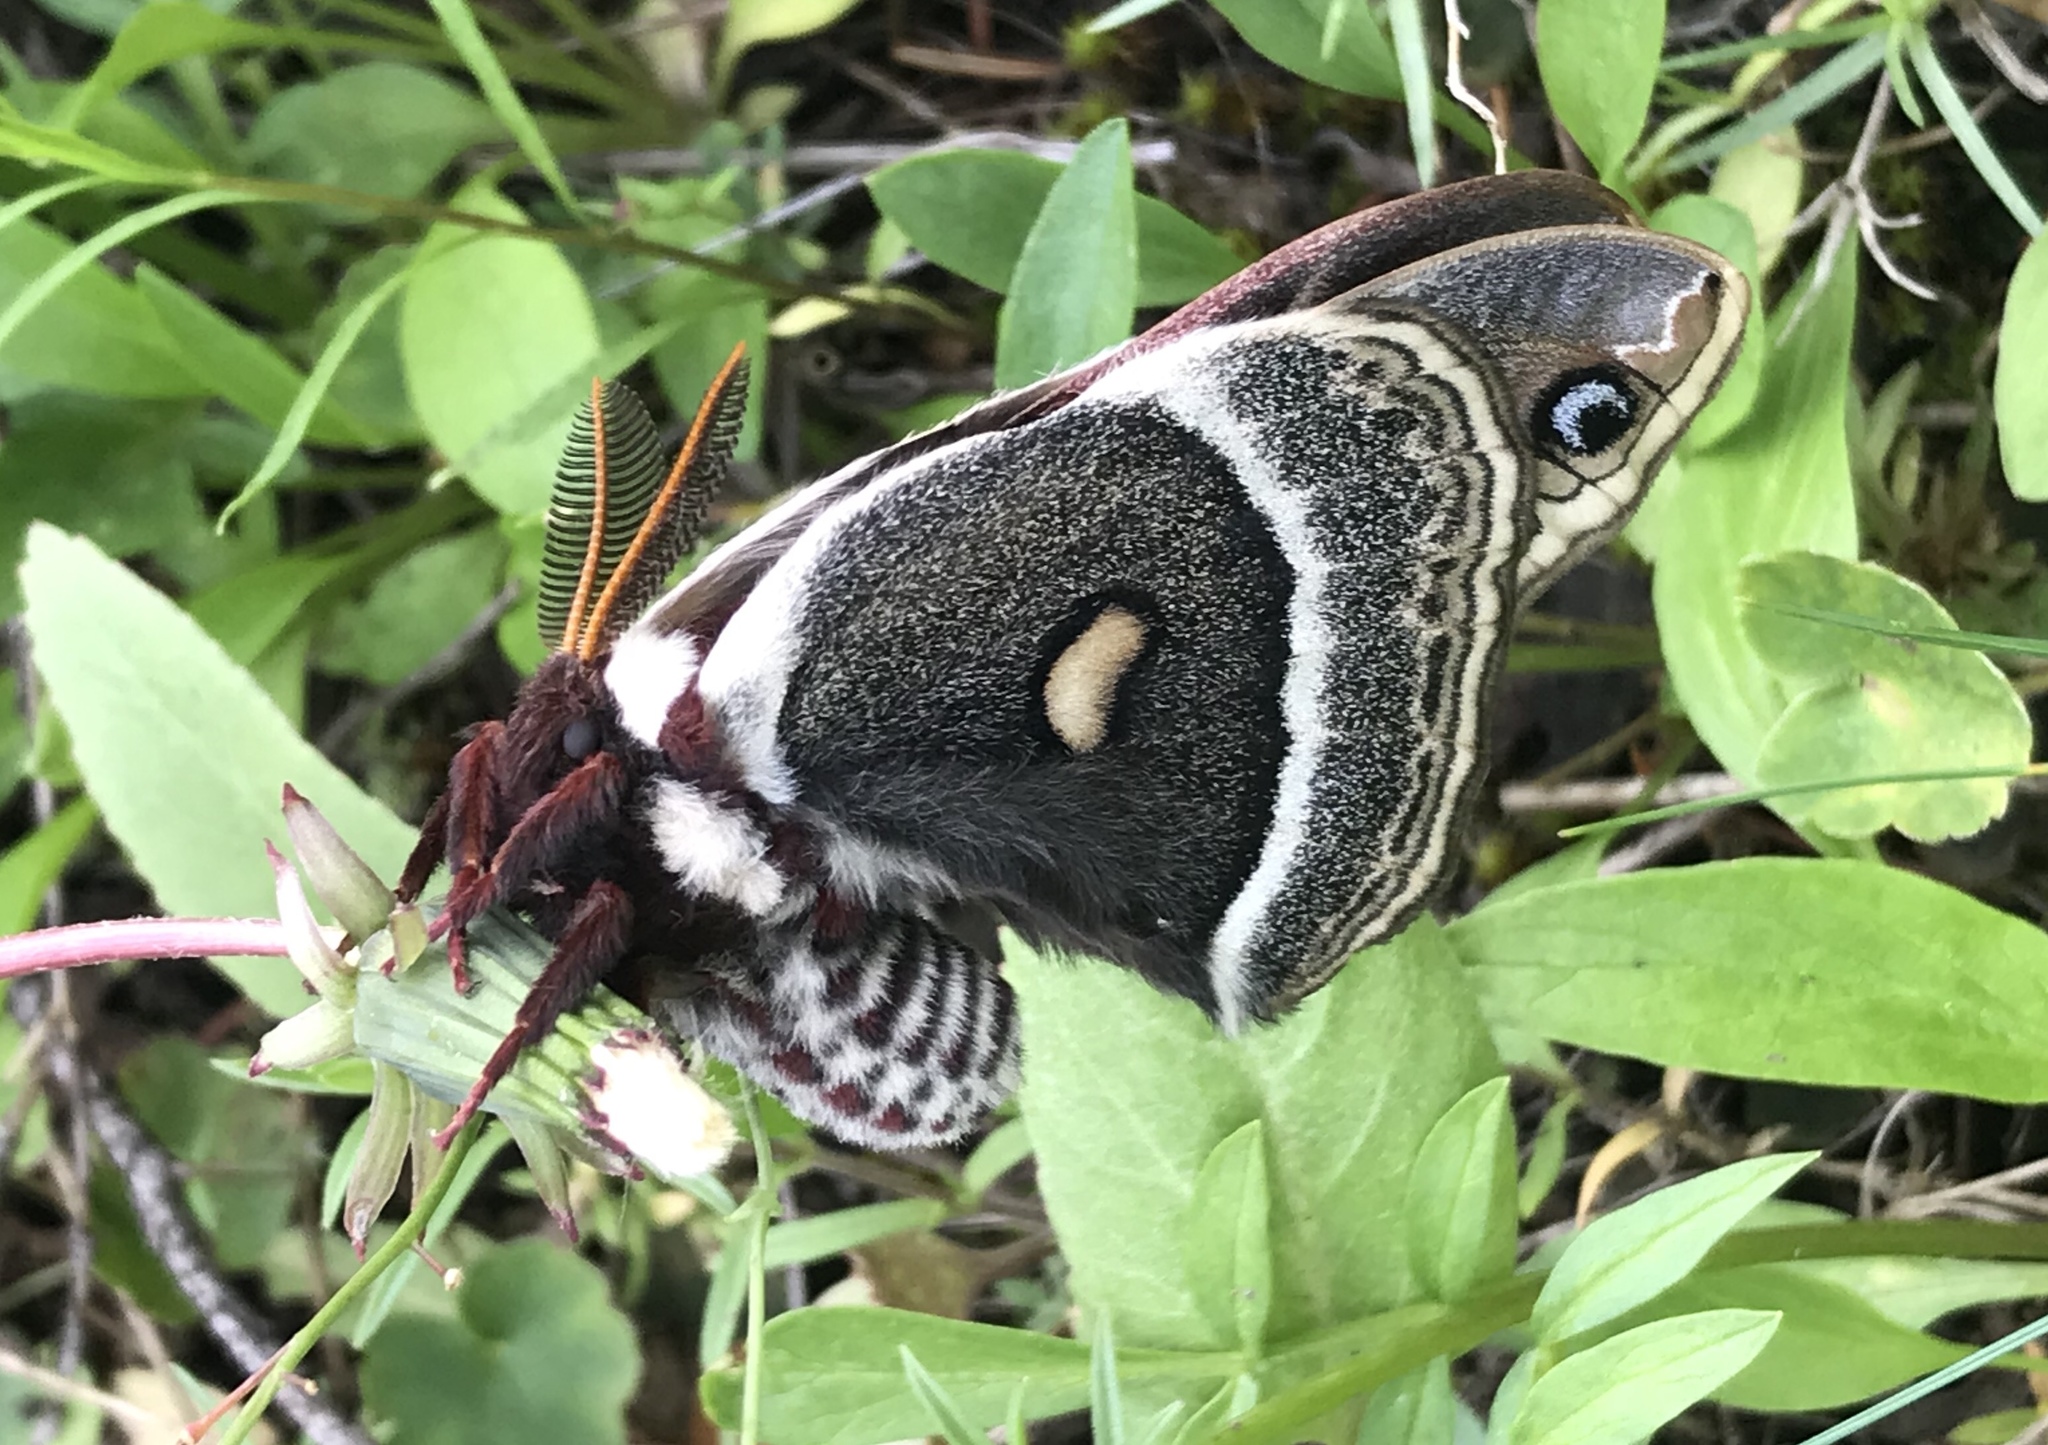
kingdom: Animalia
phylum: Arthropoda
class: Insecta
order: Lepidoptera
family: Saturniidae
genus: Hyalophora
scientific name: Hyalophora gloveri
